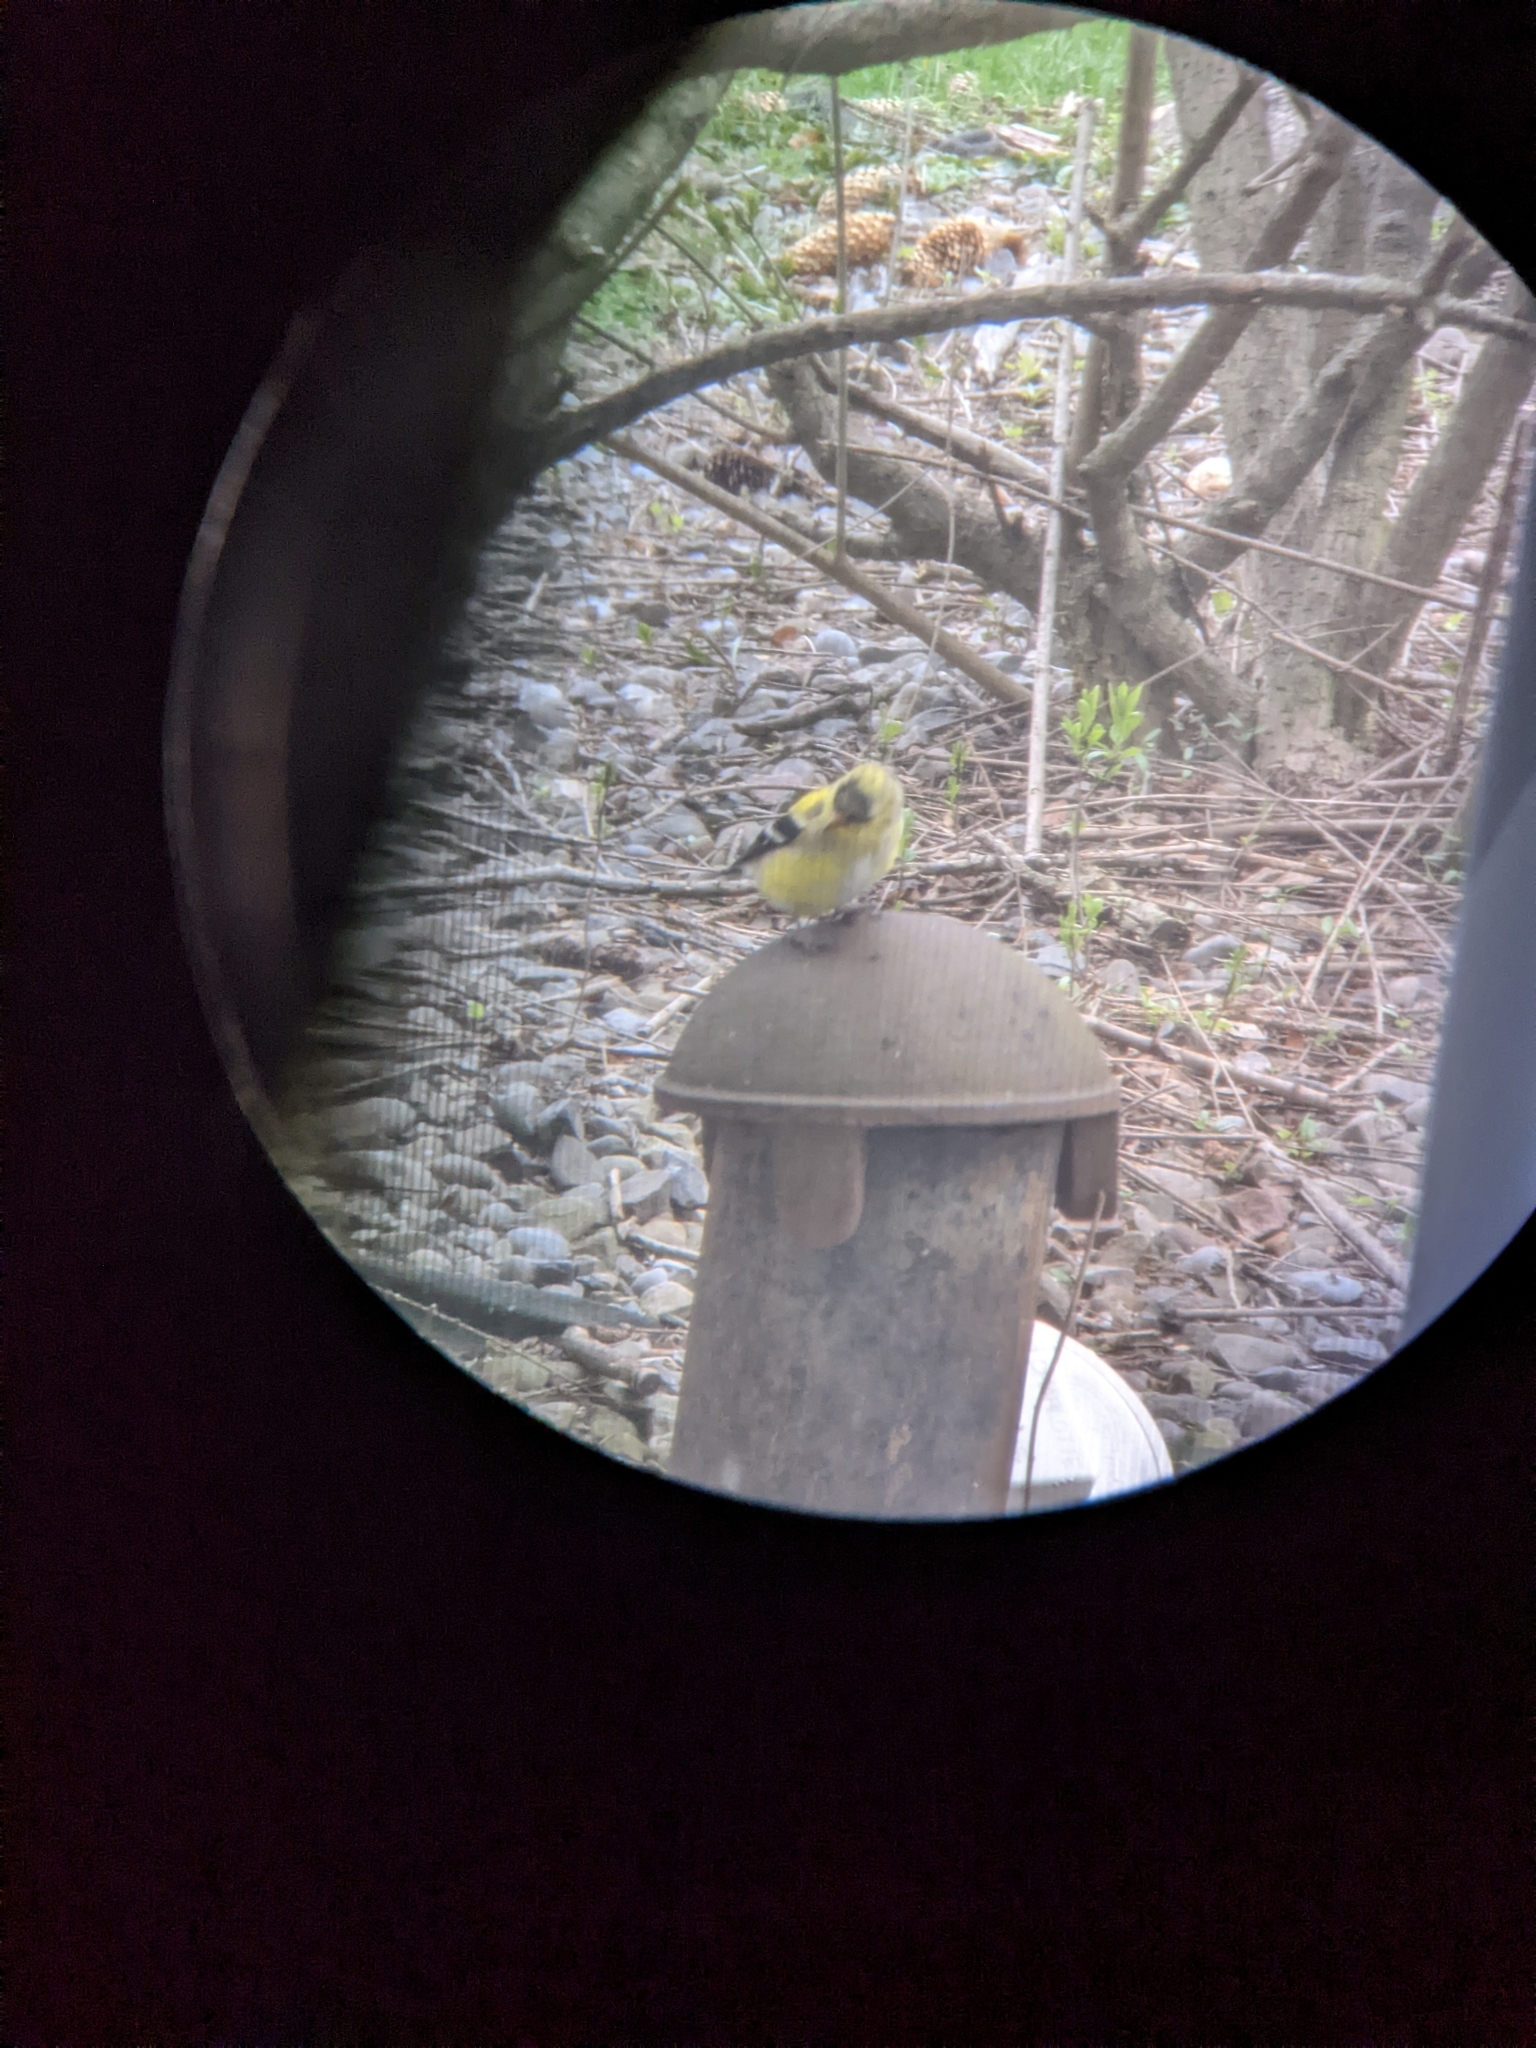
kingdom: Animalia
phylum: Chordata
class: Aves
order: Passeriformes
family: Fringillidae
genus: Spinus
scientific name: Spinus tristis
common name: American goldfinch
